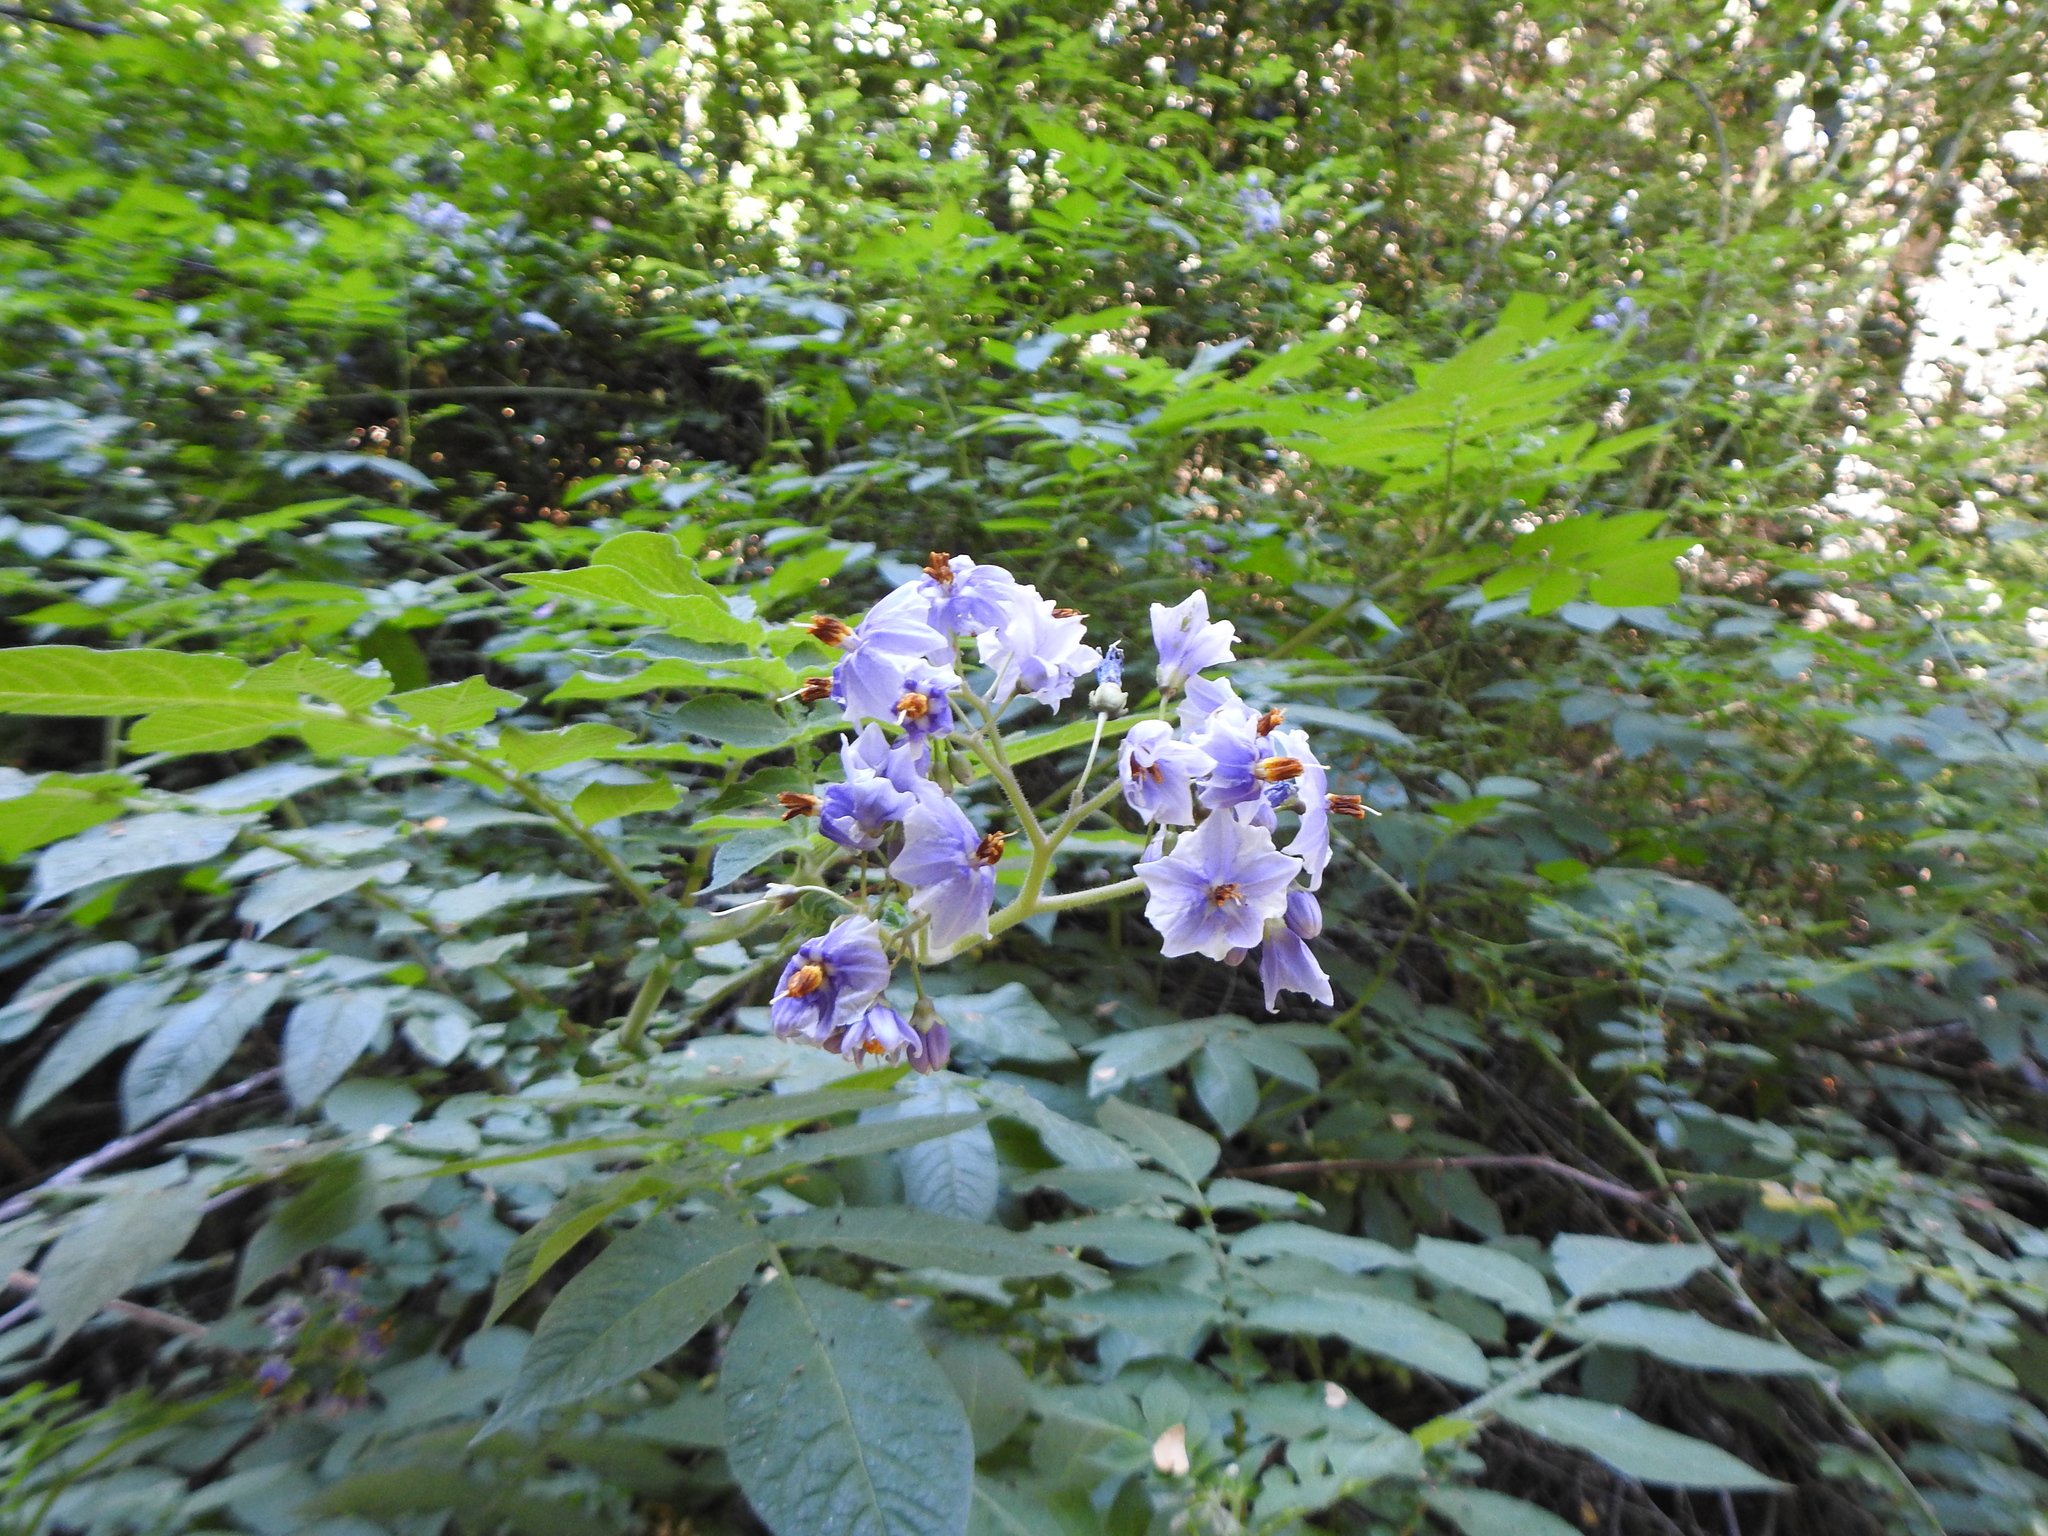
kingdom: Plantae
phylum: Tracheophyta
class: Magnoliopsida
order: Solanales
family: Solanaceae
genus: Solanum
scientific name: Solanum palustre
